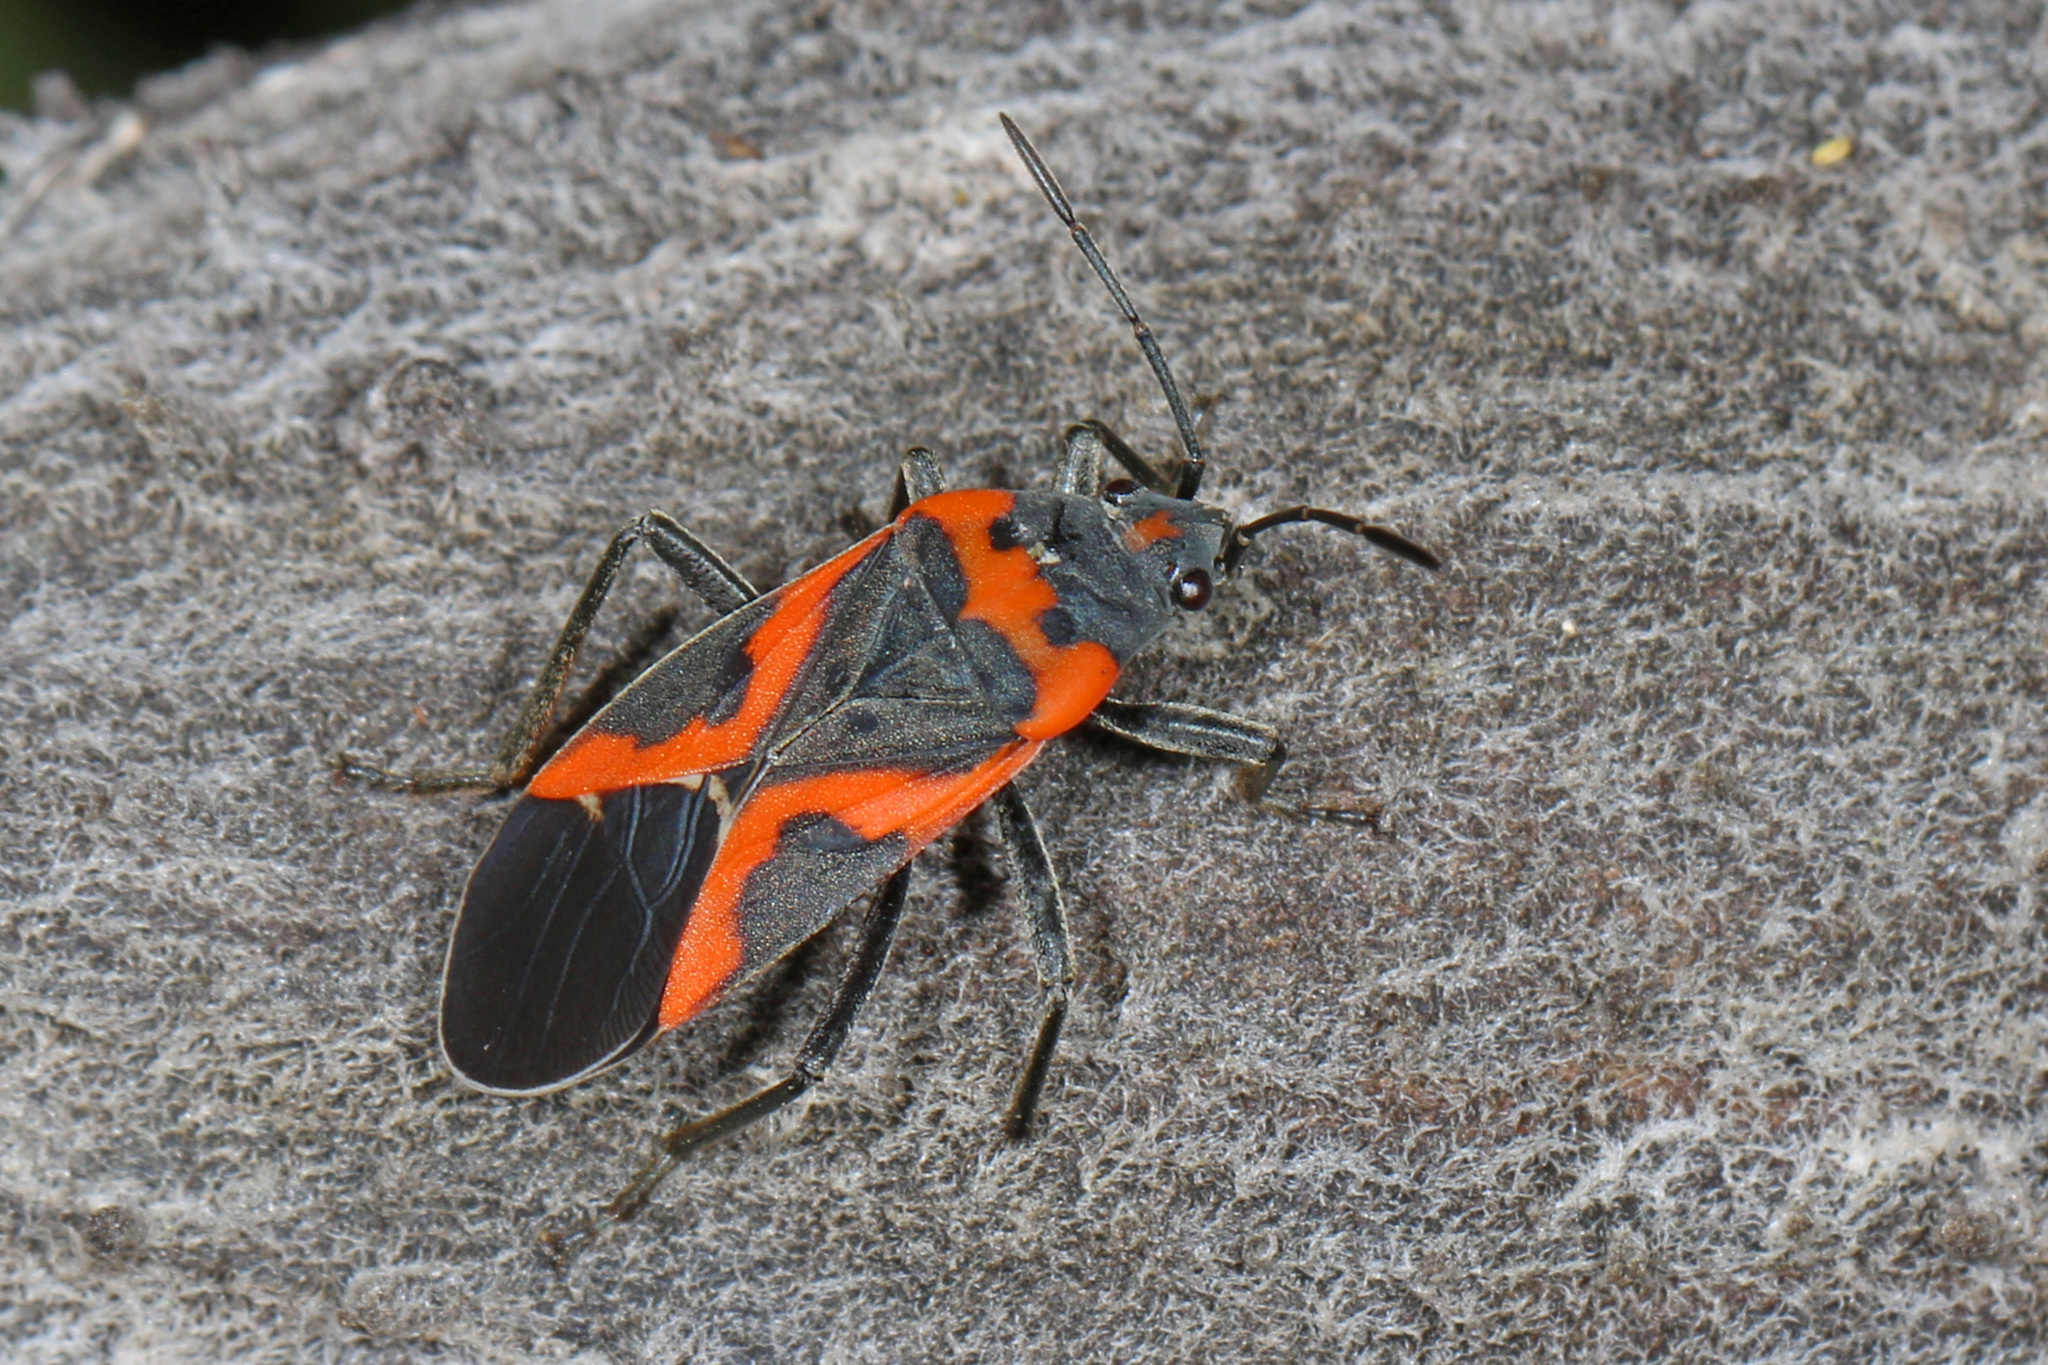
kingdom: Animalia
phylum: Arthropoda
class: Insecta
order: Hemiptera
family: Lygaeidae
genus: Lygaeus
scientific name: Lygaeus kalmii
